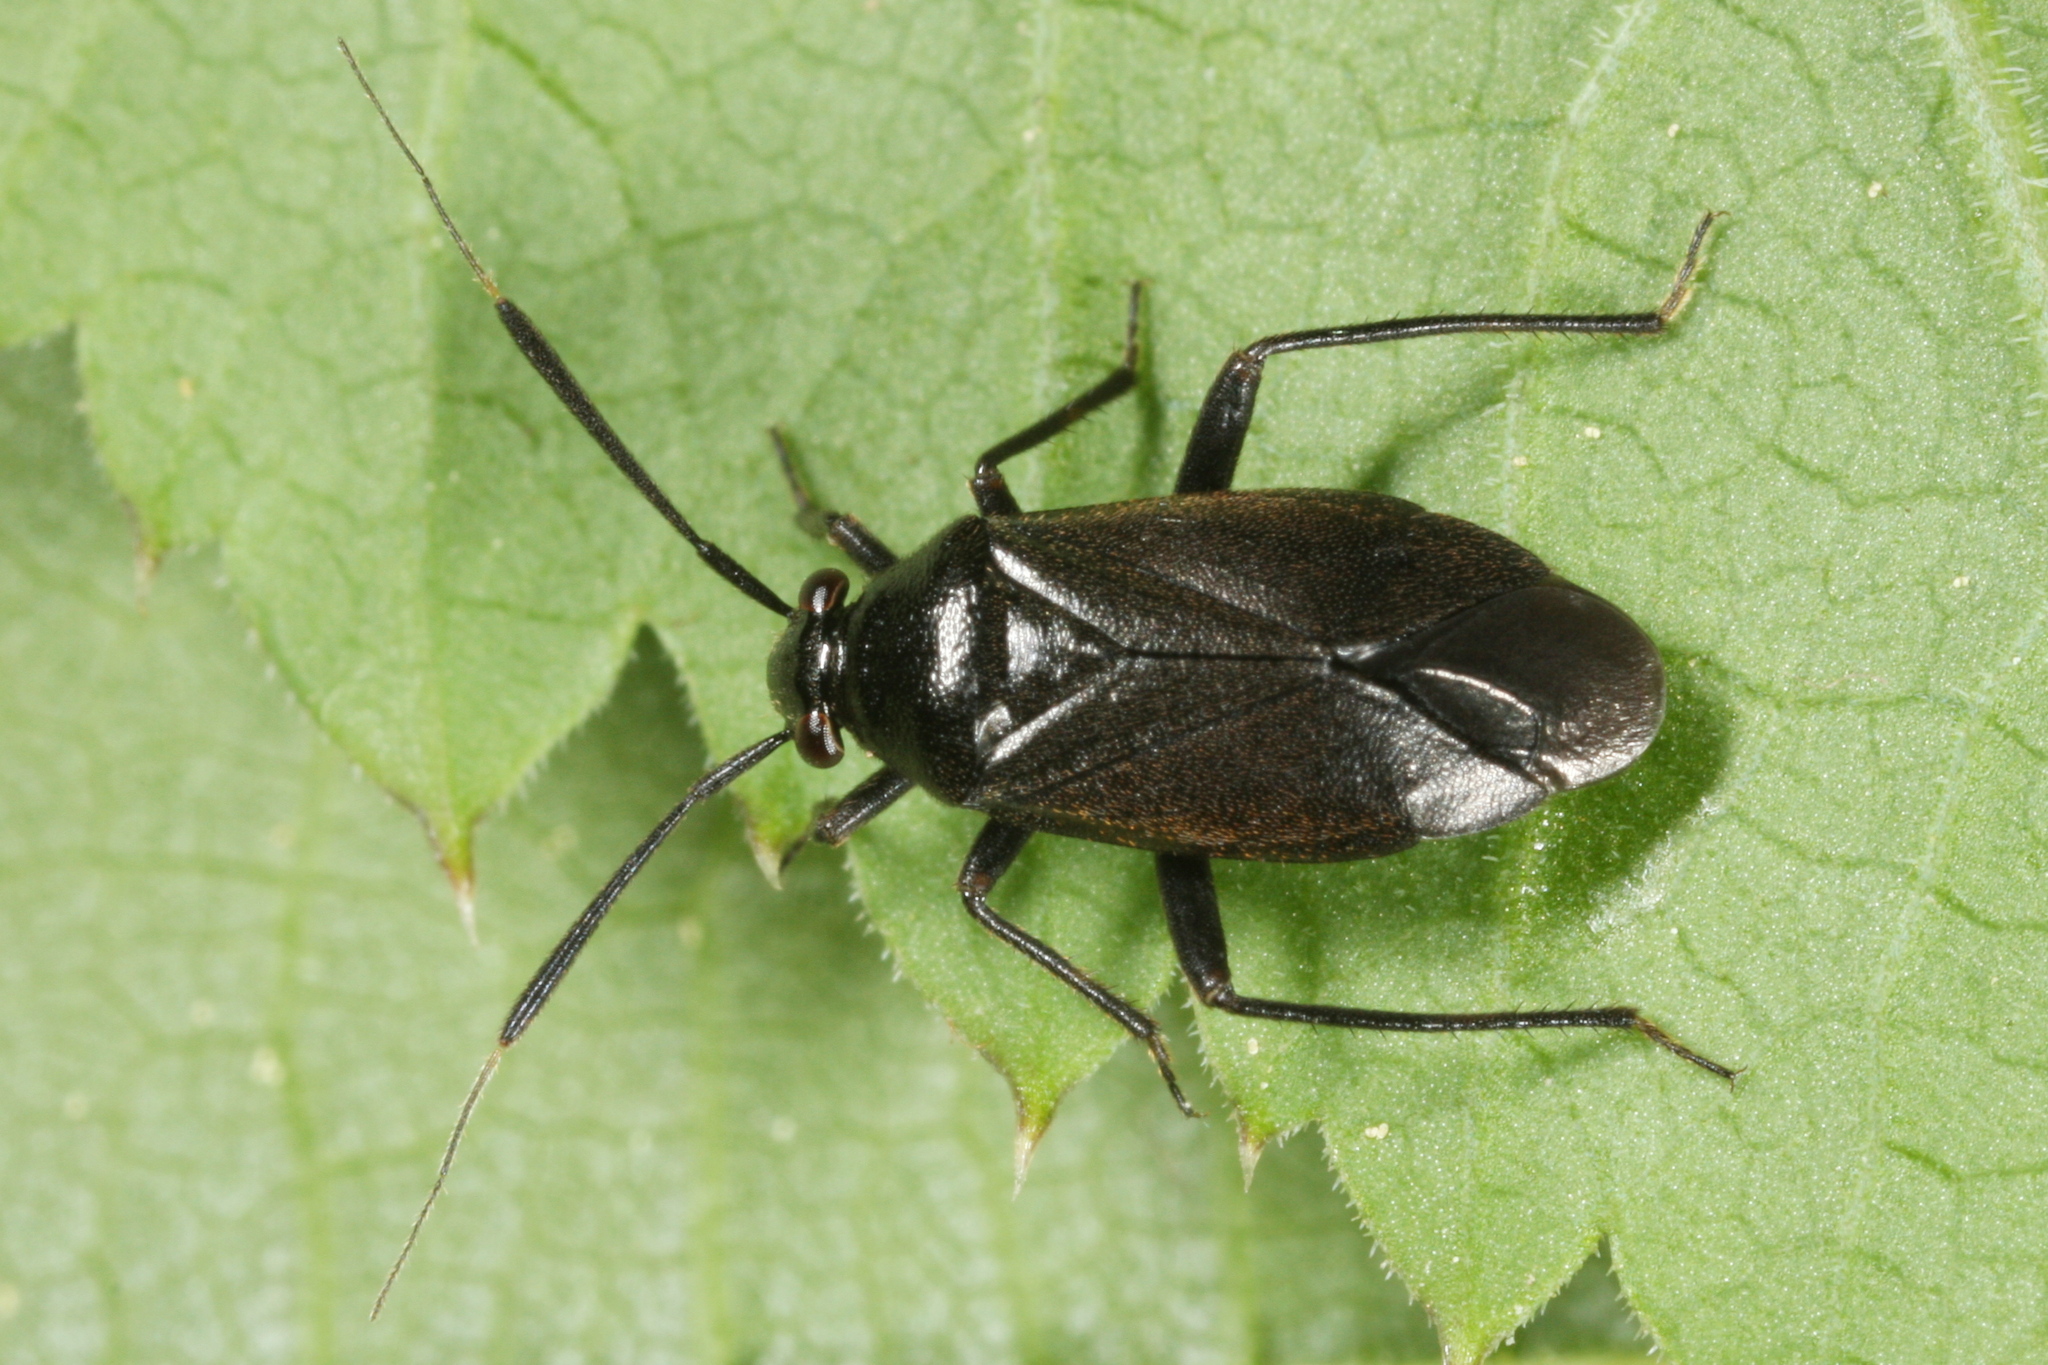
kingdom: Animalia
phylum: Arthropoda
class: Insecta
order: Hemiptera
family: Miridae
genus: Capsus
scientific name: Capsus ater
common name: Black plant bug
